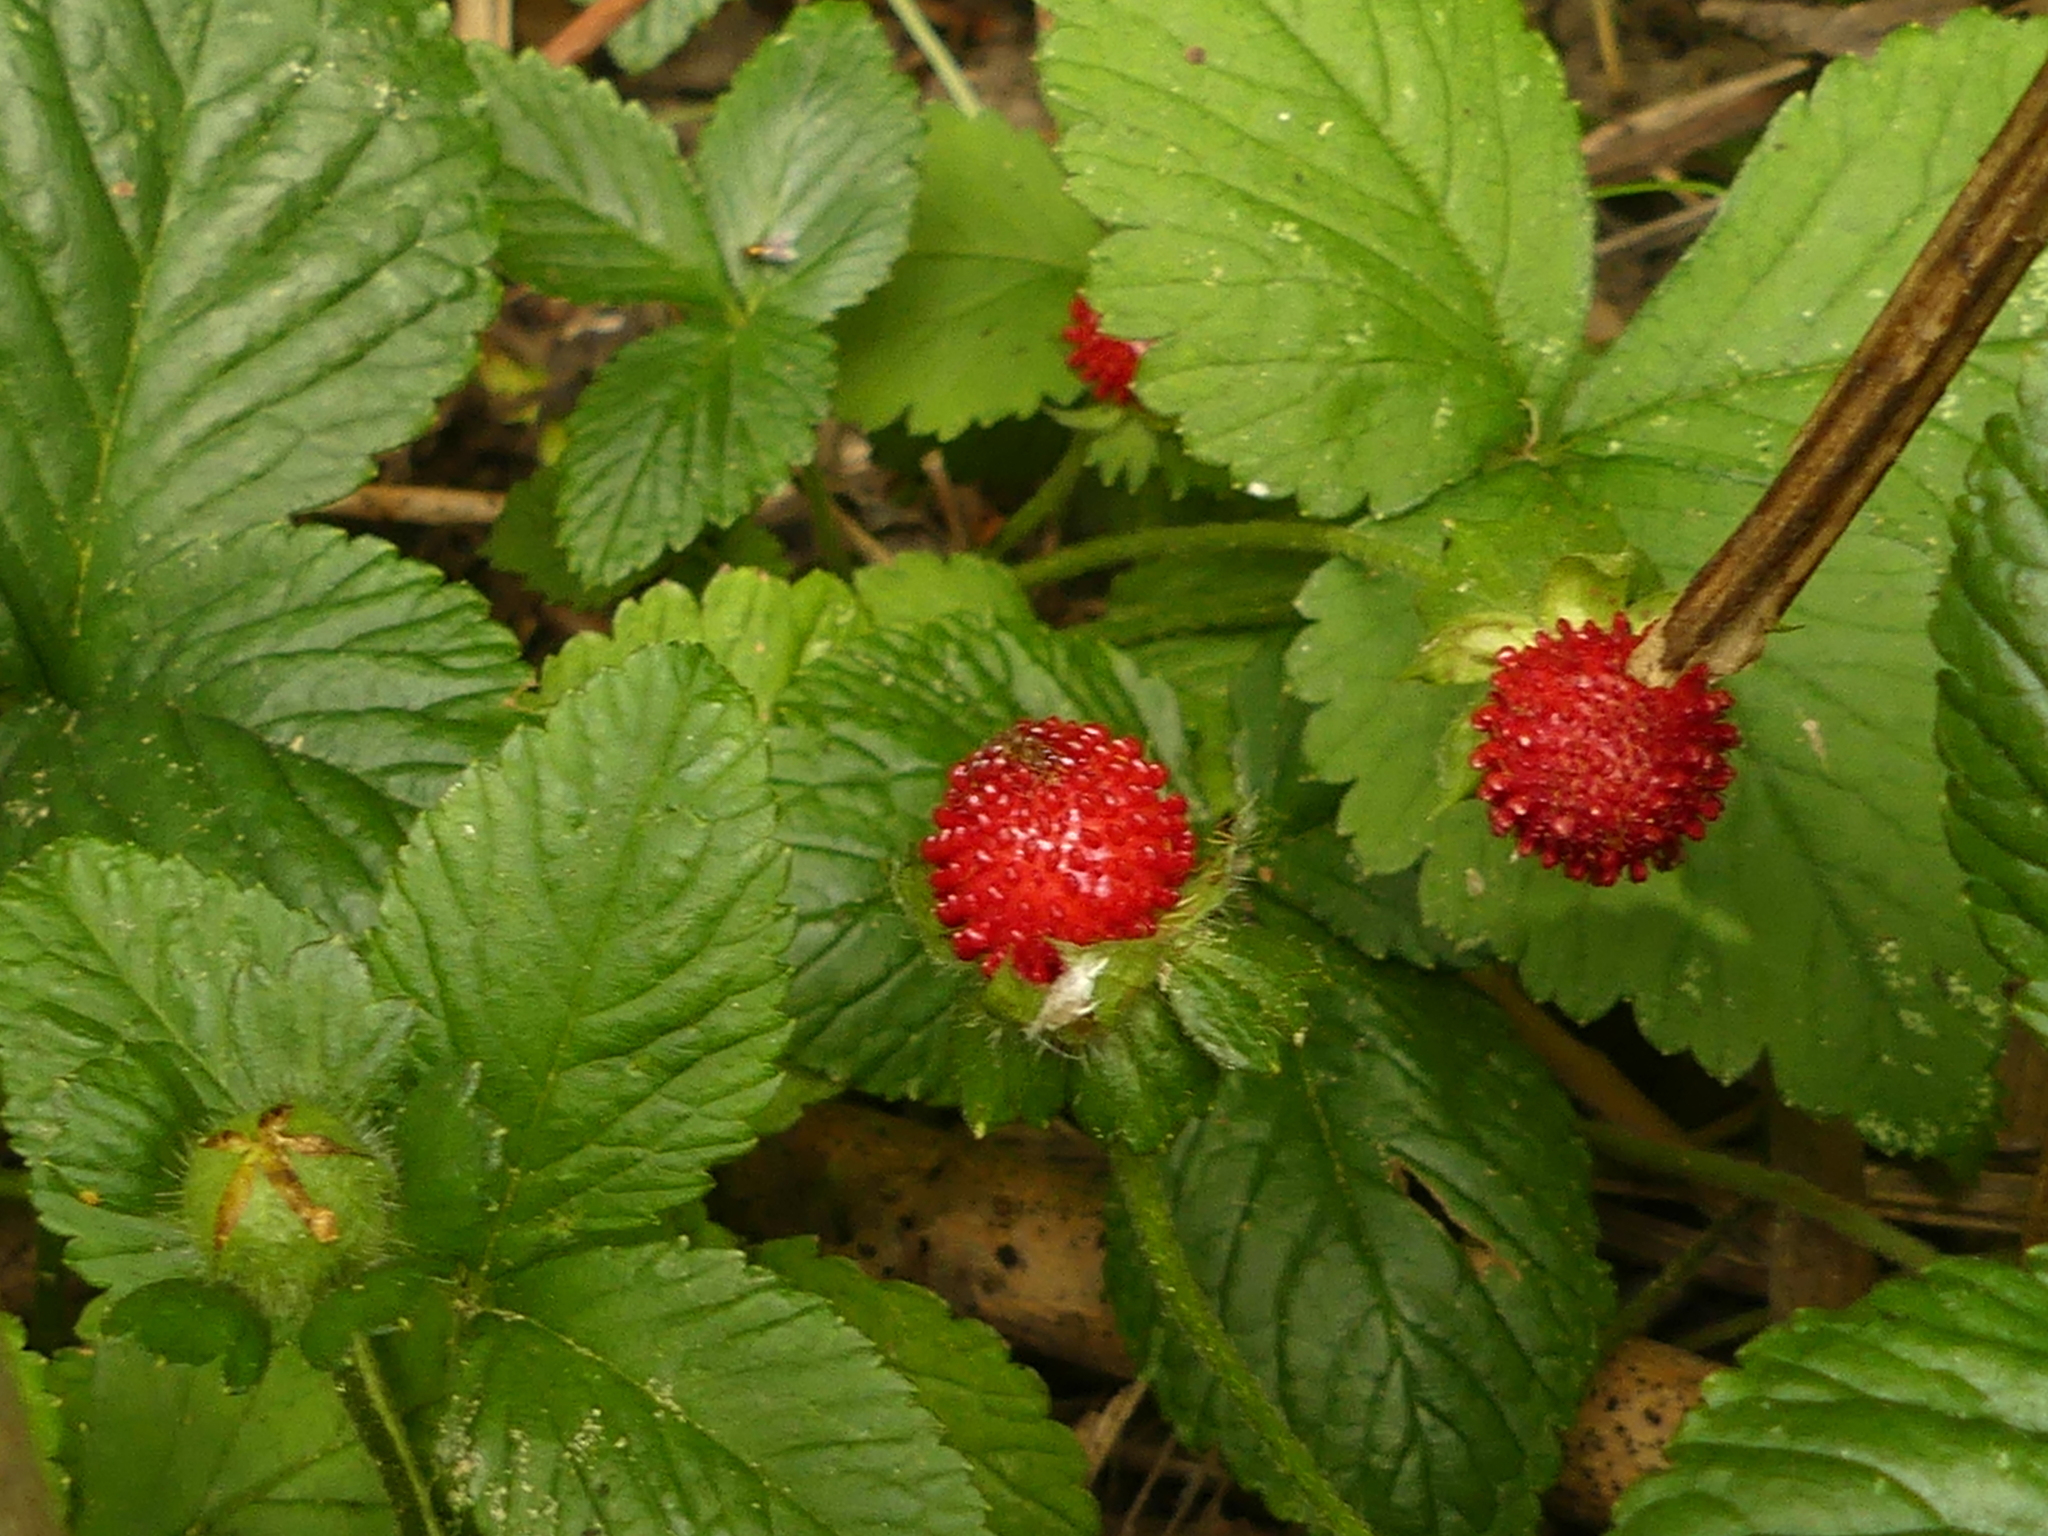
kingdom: Plantae
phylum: Tracheophyta
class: Magnoliopsida
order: Rosales
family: Rosaceae
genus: Potentilla
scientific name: Potentilla indica
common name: Yellow-flowered strawberry
